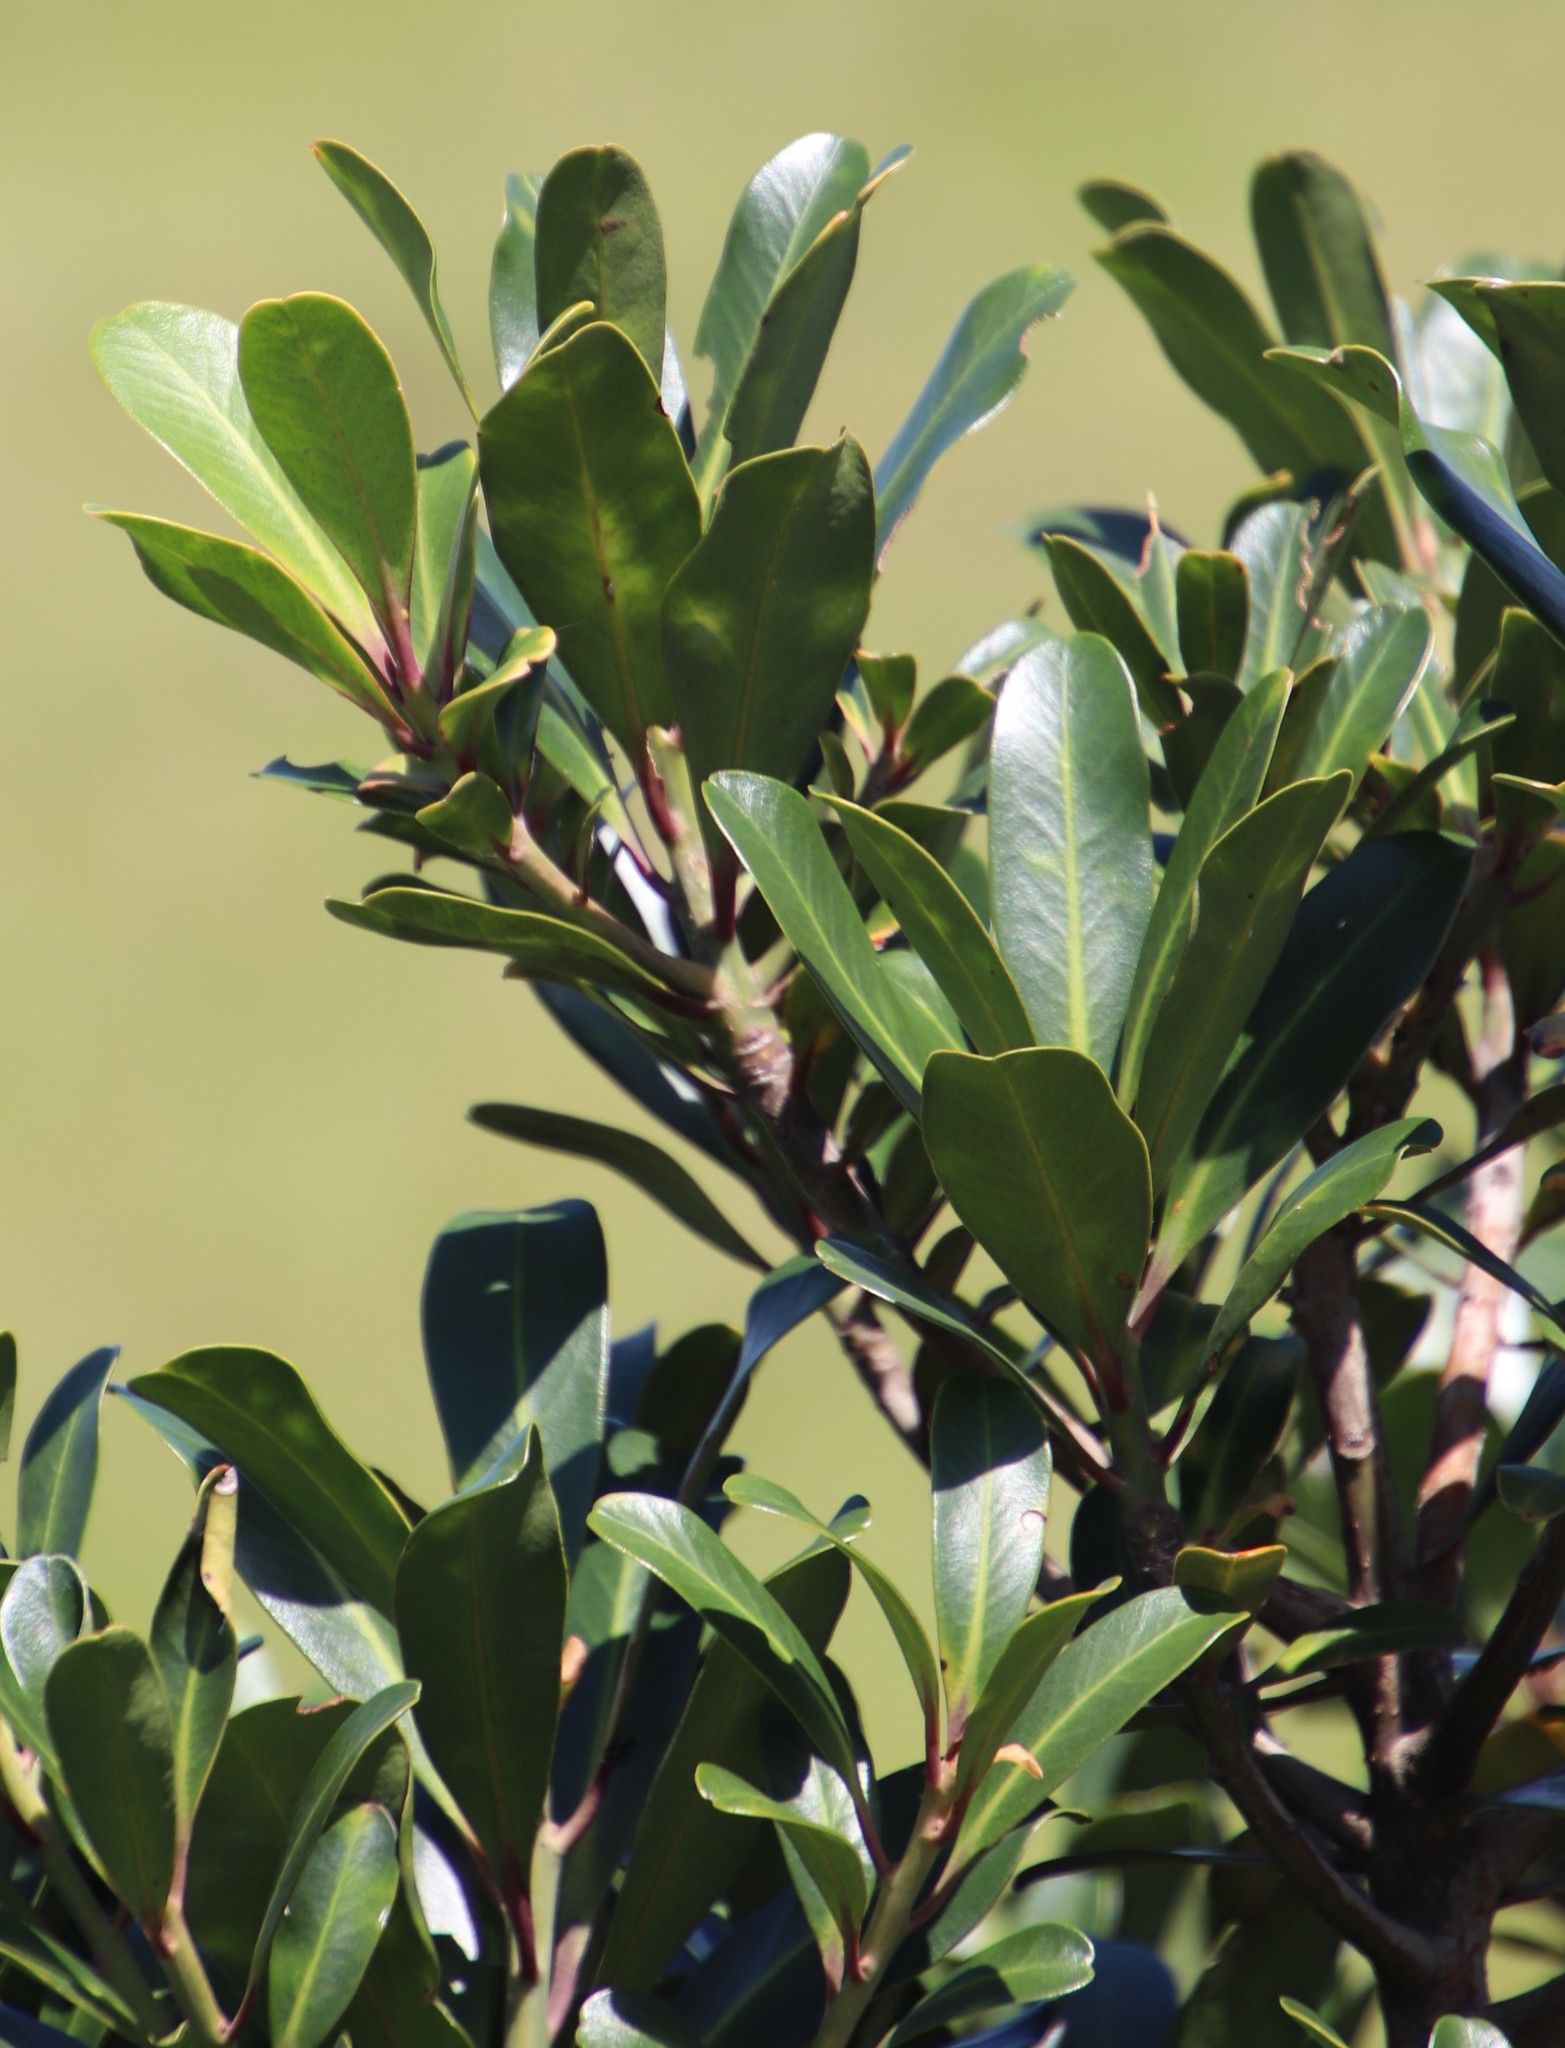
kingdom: Plantae
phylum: Tracheophyta
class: Magnoliopsida
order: Ericales
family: Primulaceae
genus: Myrsine
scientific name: Myrsine melanophloeos
